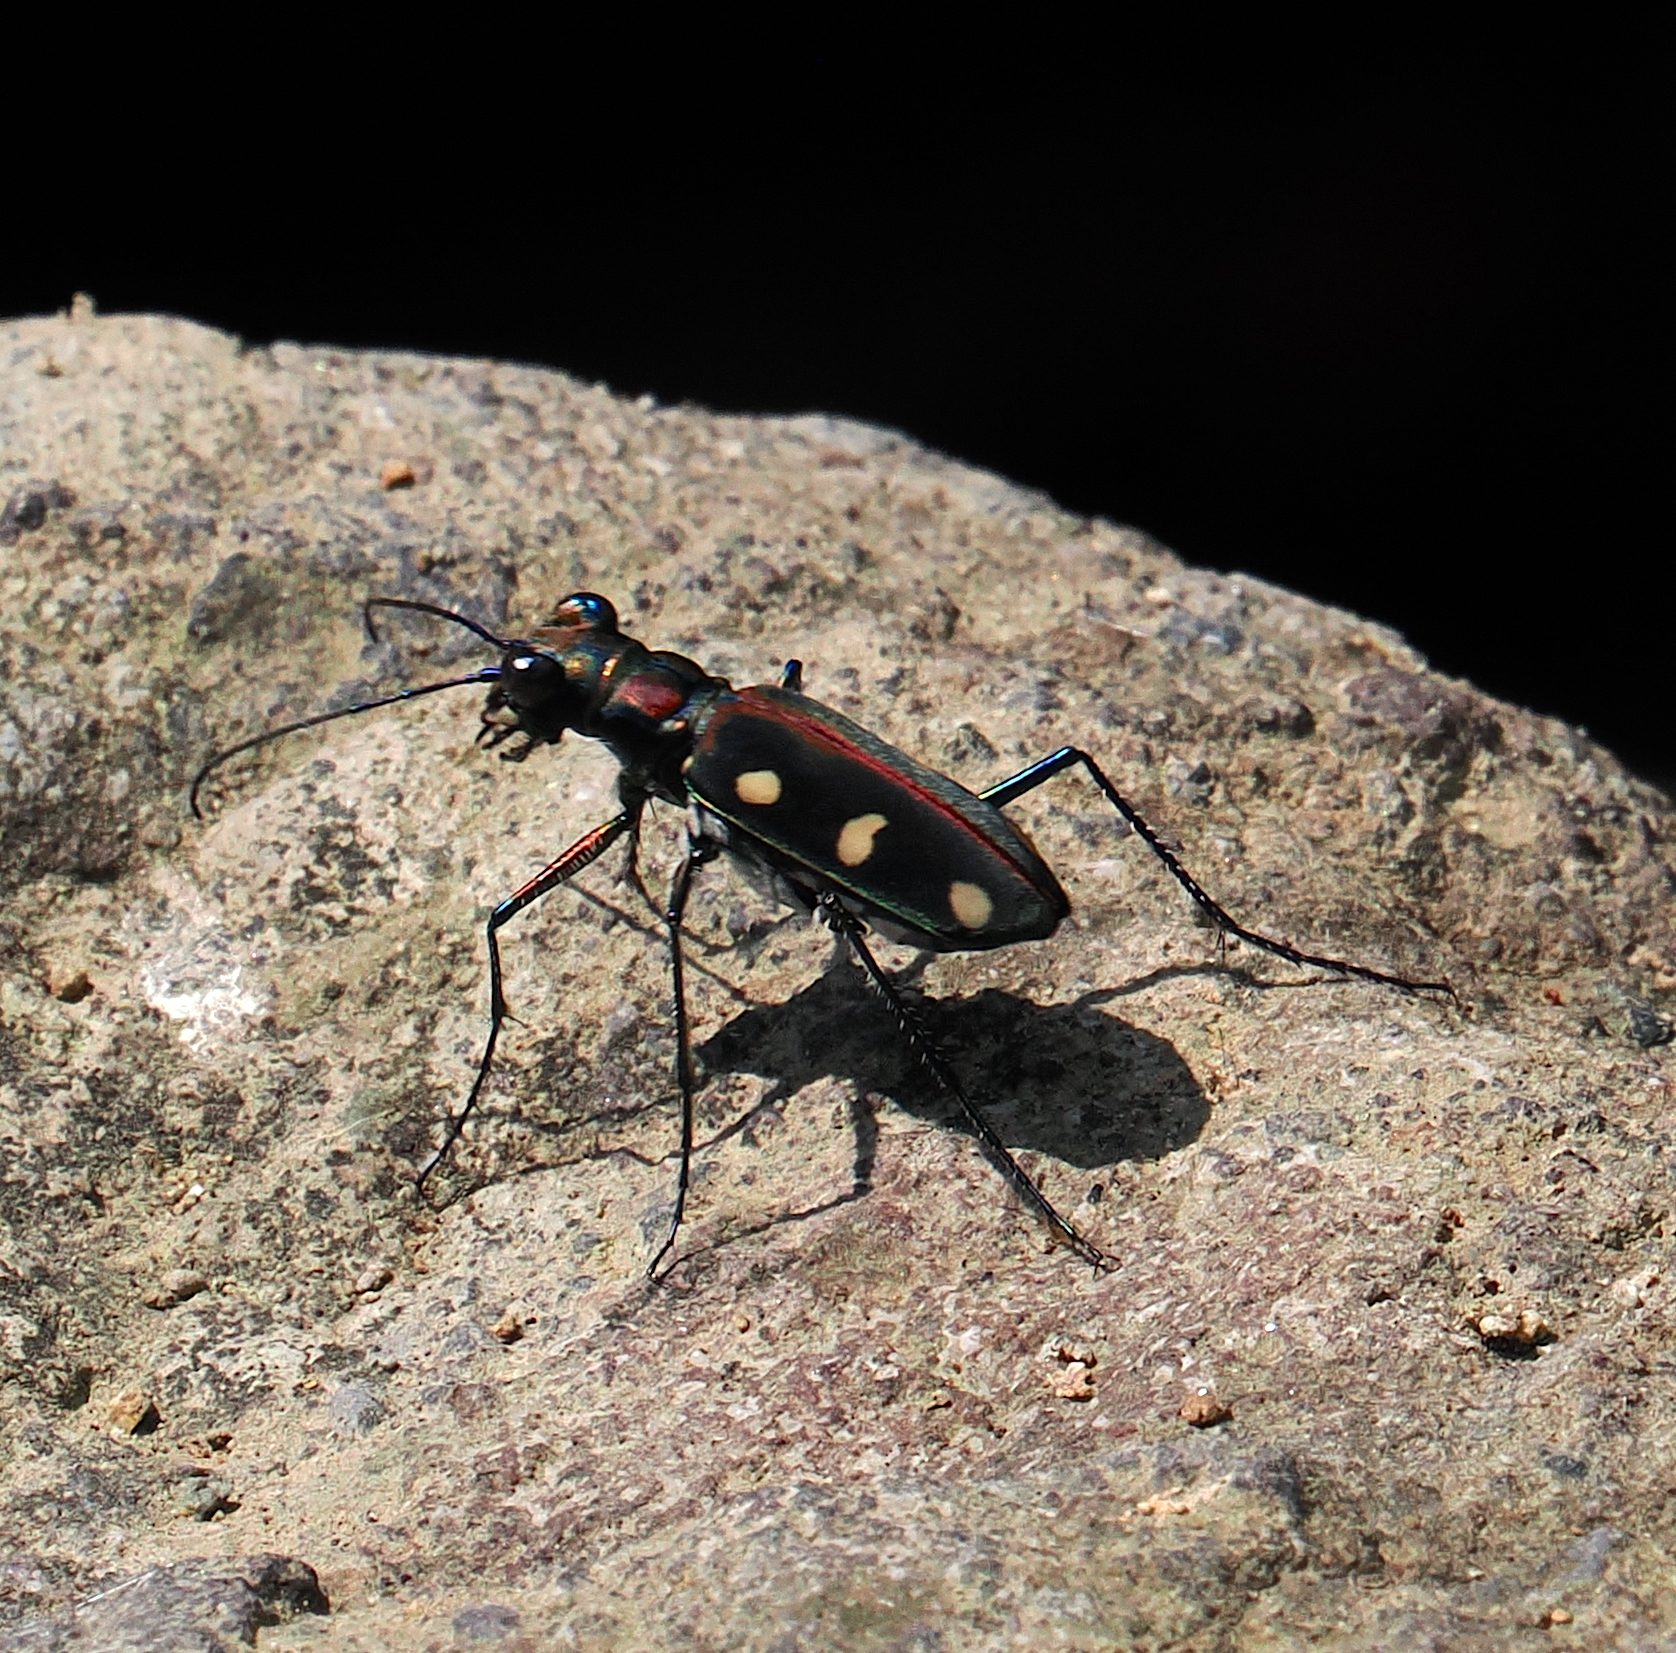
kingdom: Animalia
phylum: Arthropoda
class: Insecta
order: Coleoptera
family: Carabidae
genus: Cicindela
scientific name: Cicindela aurulenta
